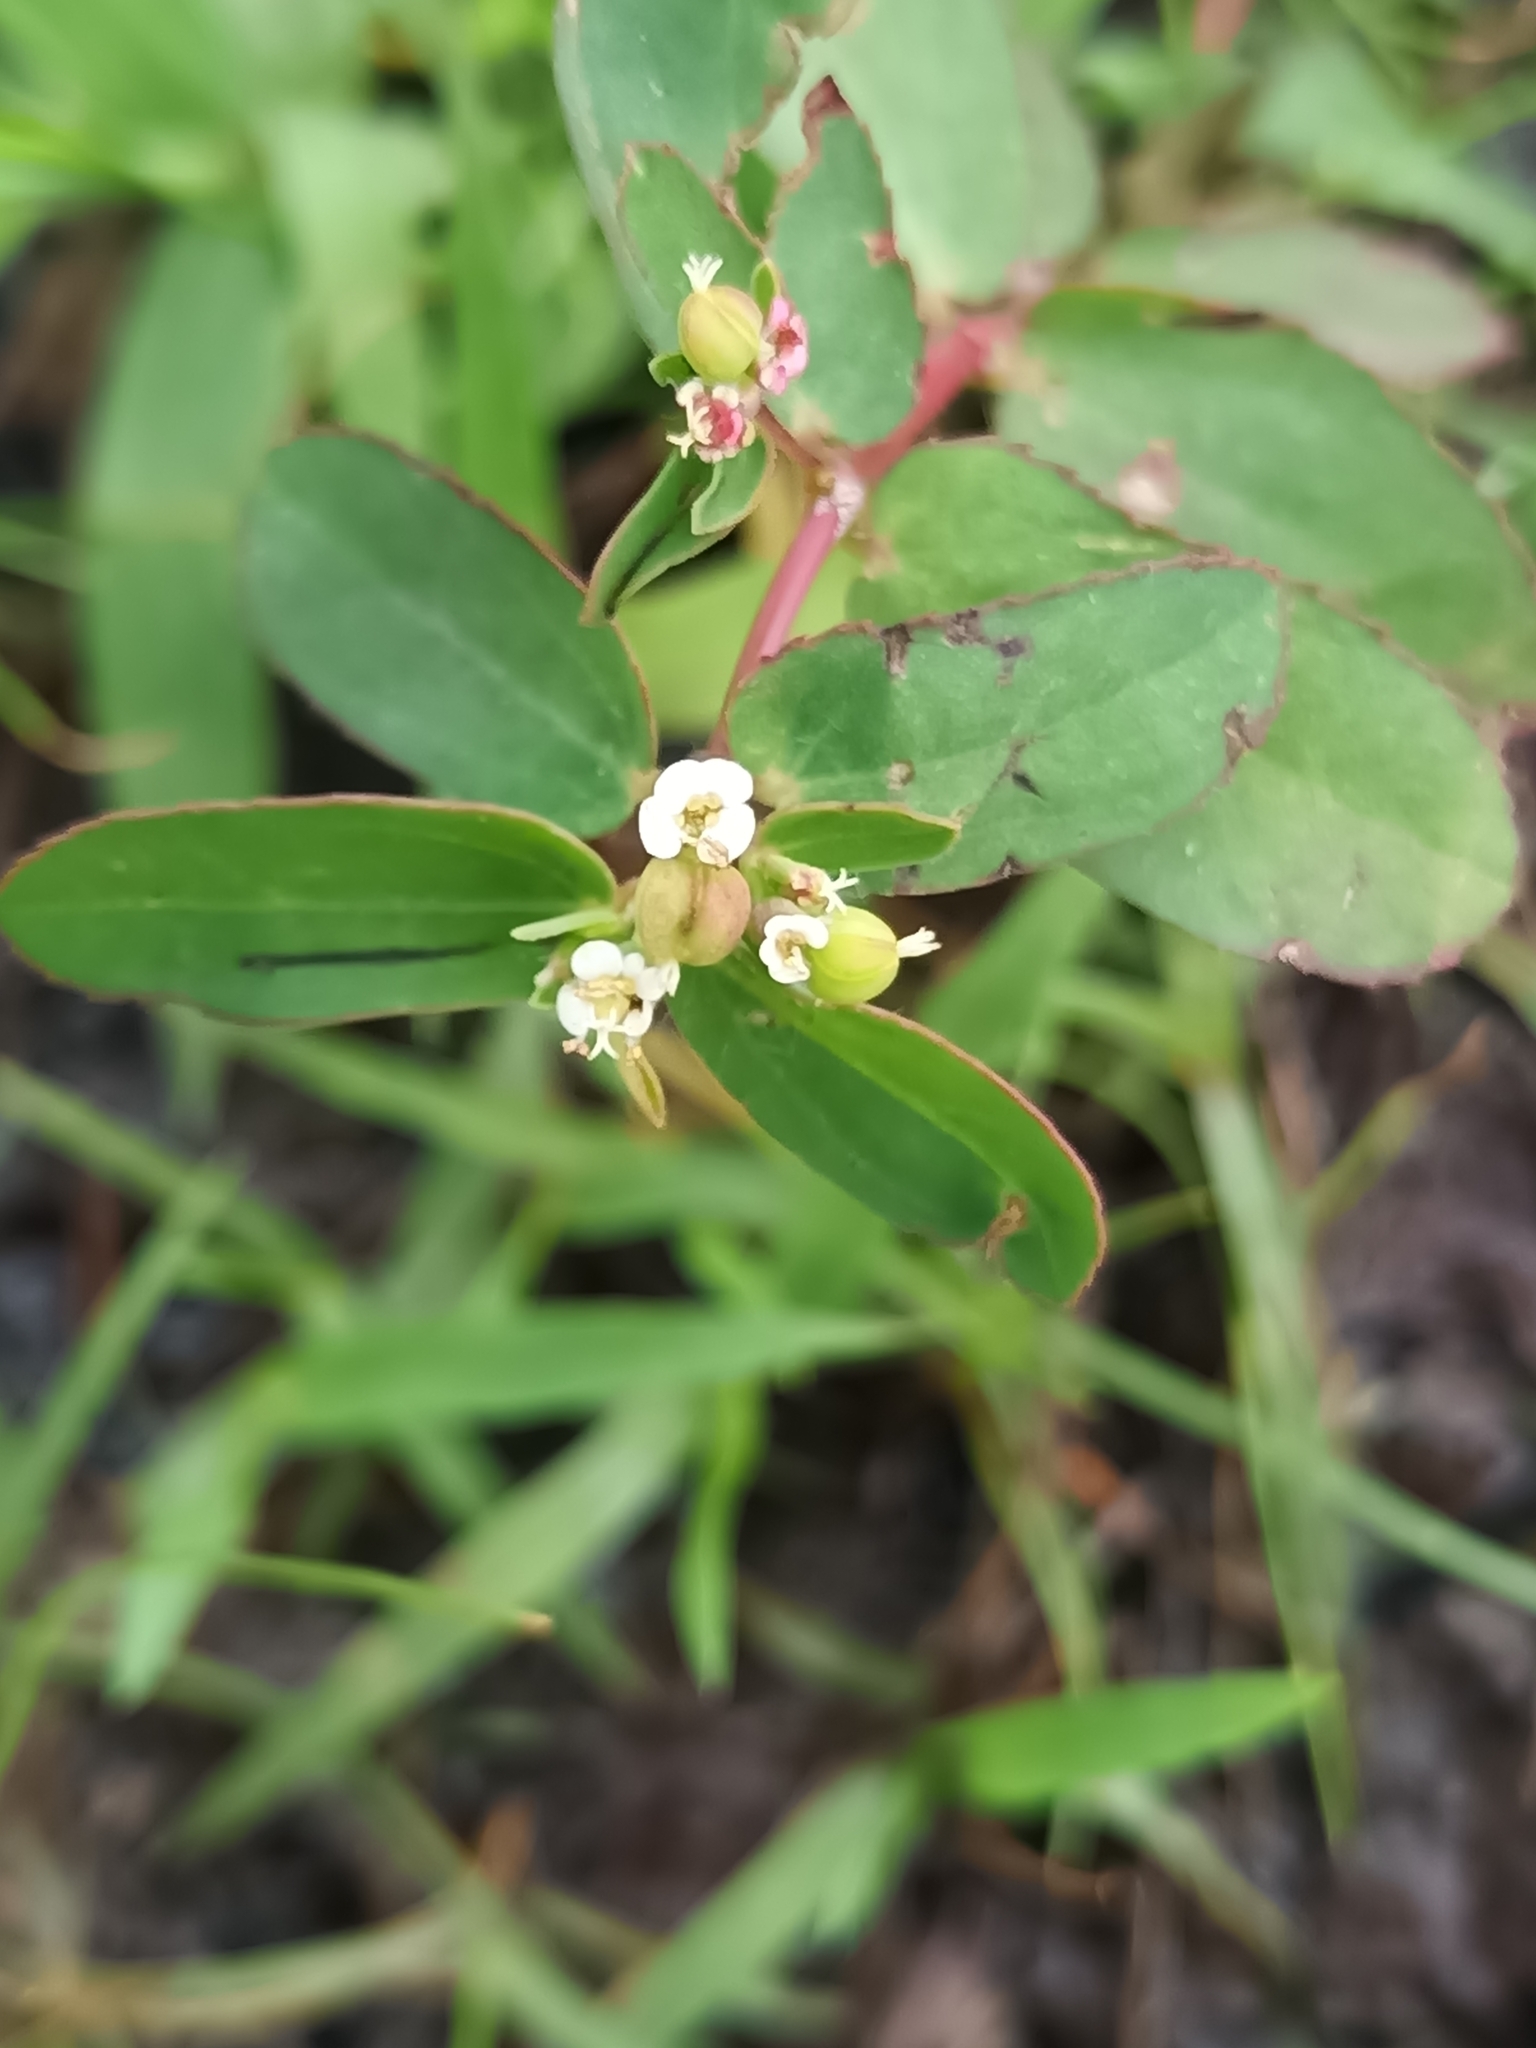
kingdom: Plantae
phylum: Tracheophyta
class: Magnoliopsida
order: Malpighiales
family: Euphorbiaceae
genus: Euphorbia
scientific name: Euphorbia hyssopifolia
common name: Hyssopleaf sandmat
